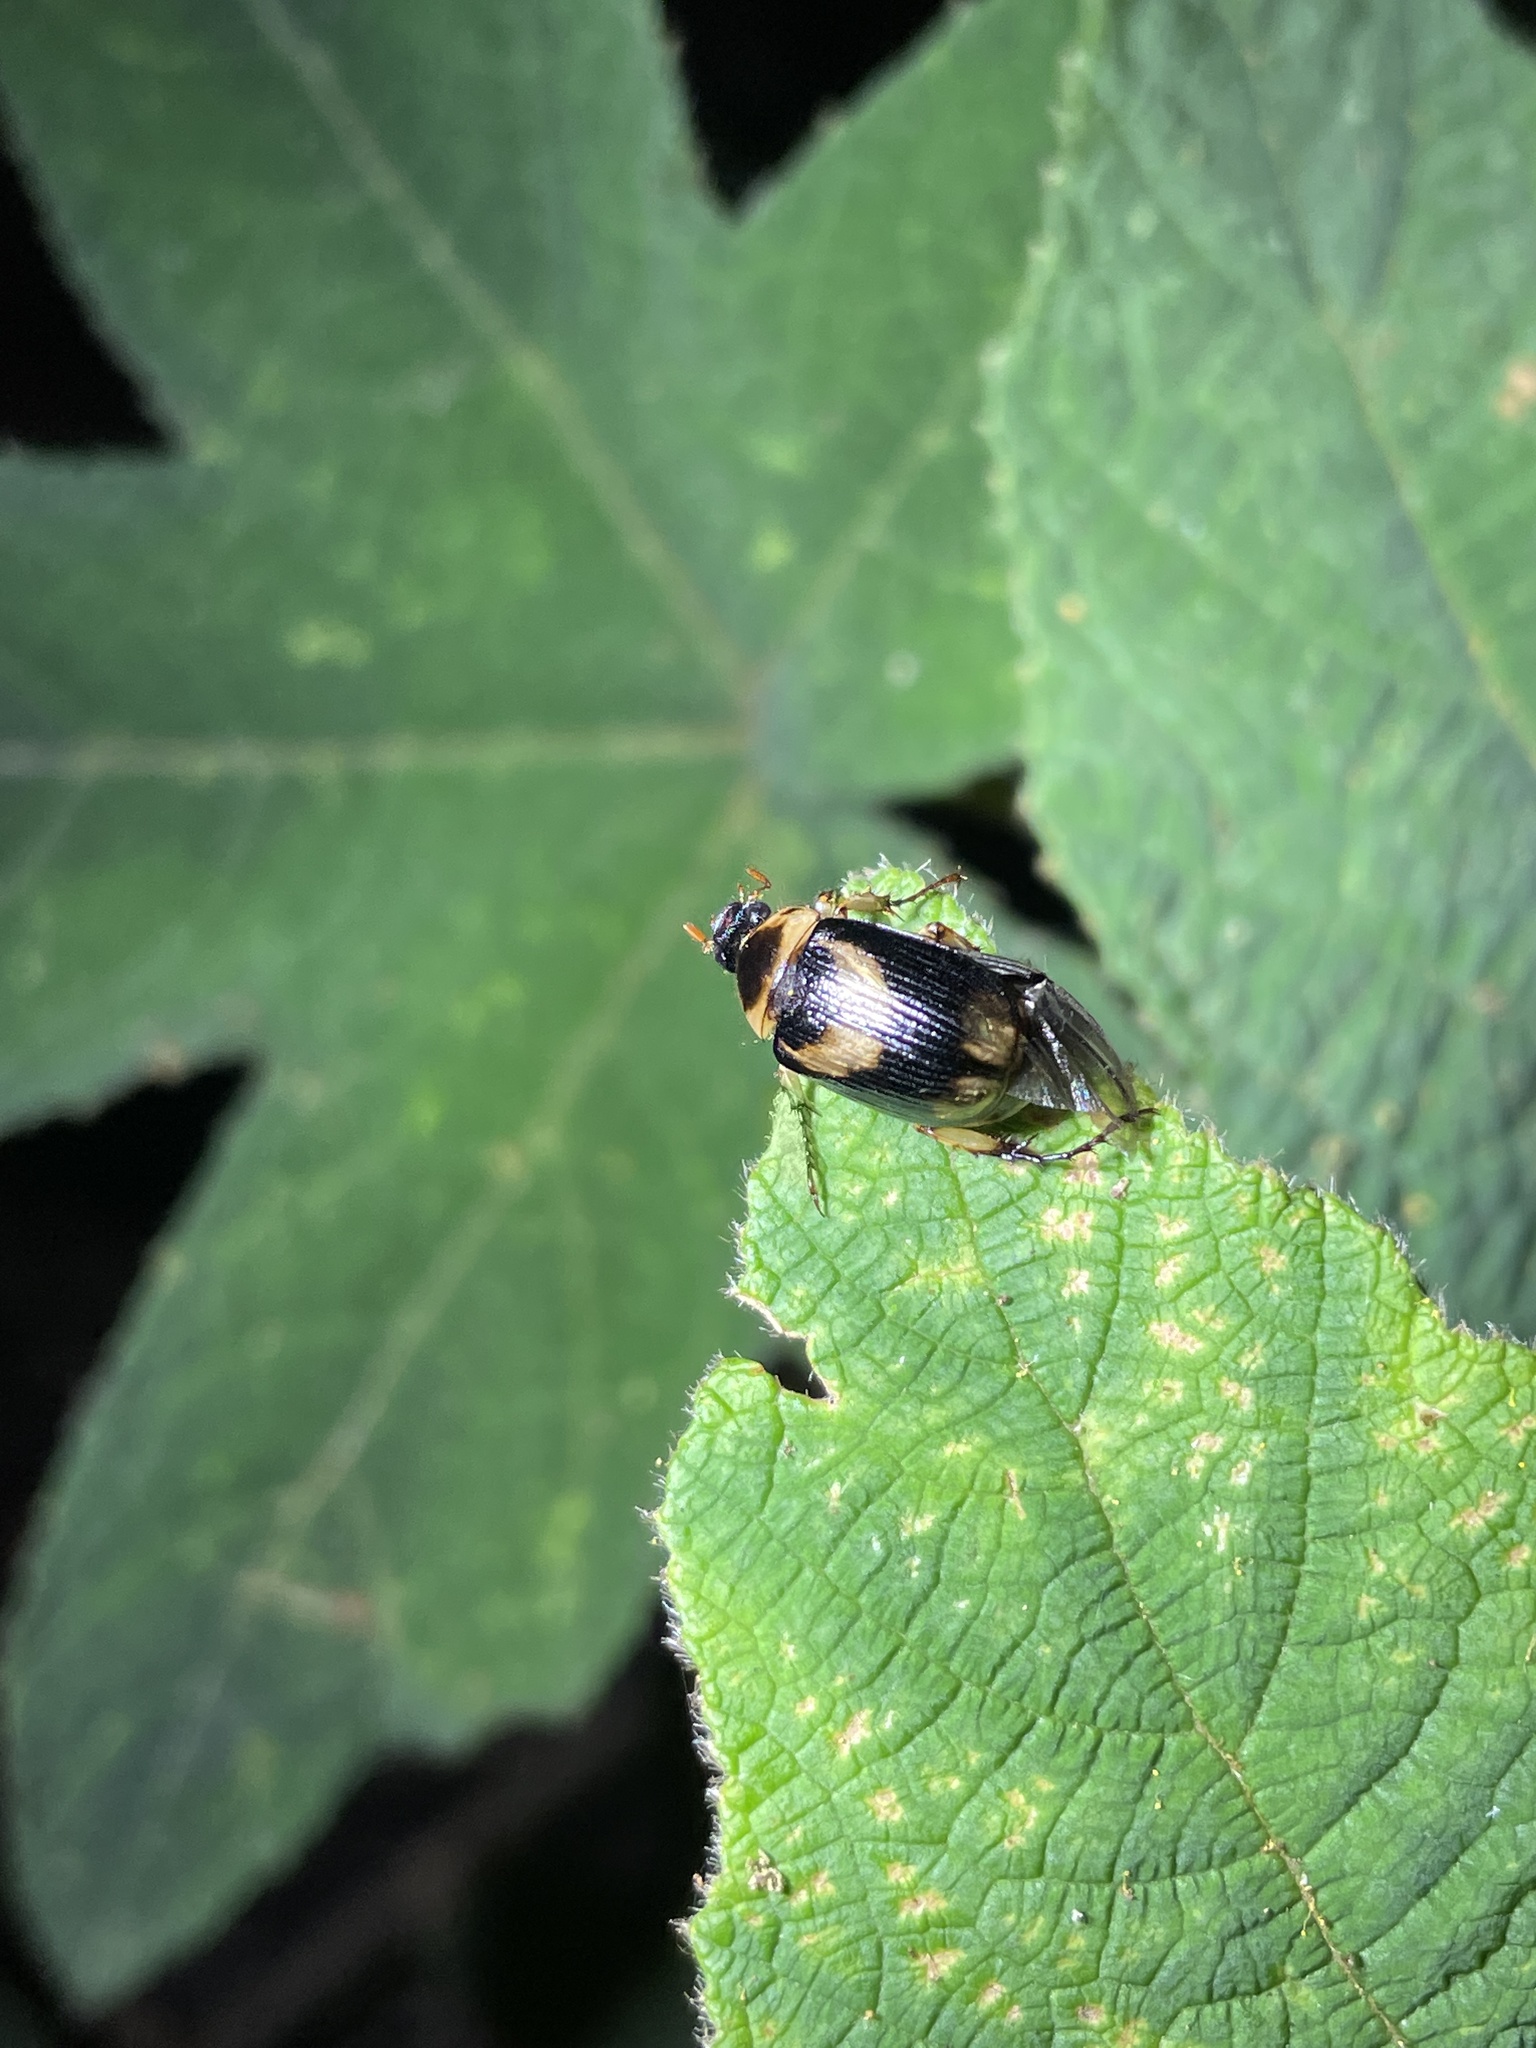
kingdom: Animalia
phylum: Arthropoda
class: Insecta
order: Coleoptera
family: Scarabaeidae
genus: Anomala
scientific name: Anomala bilunata
